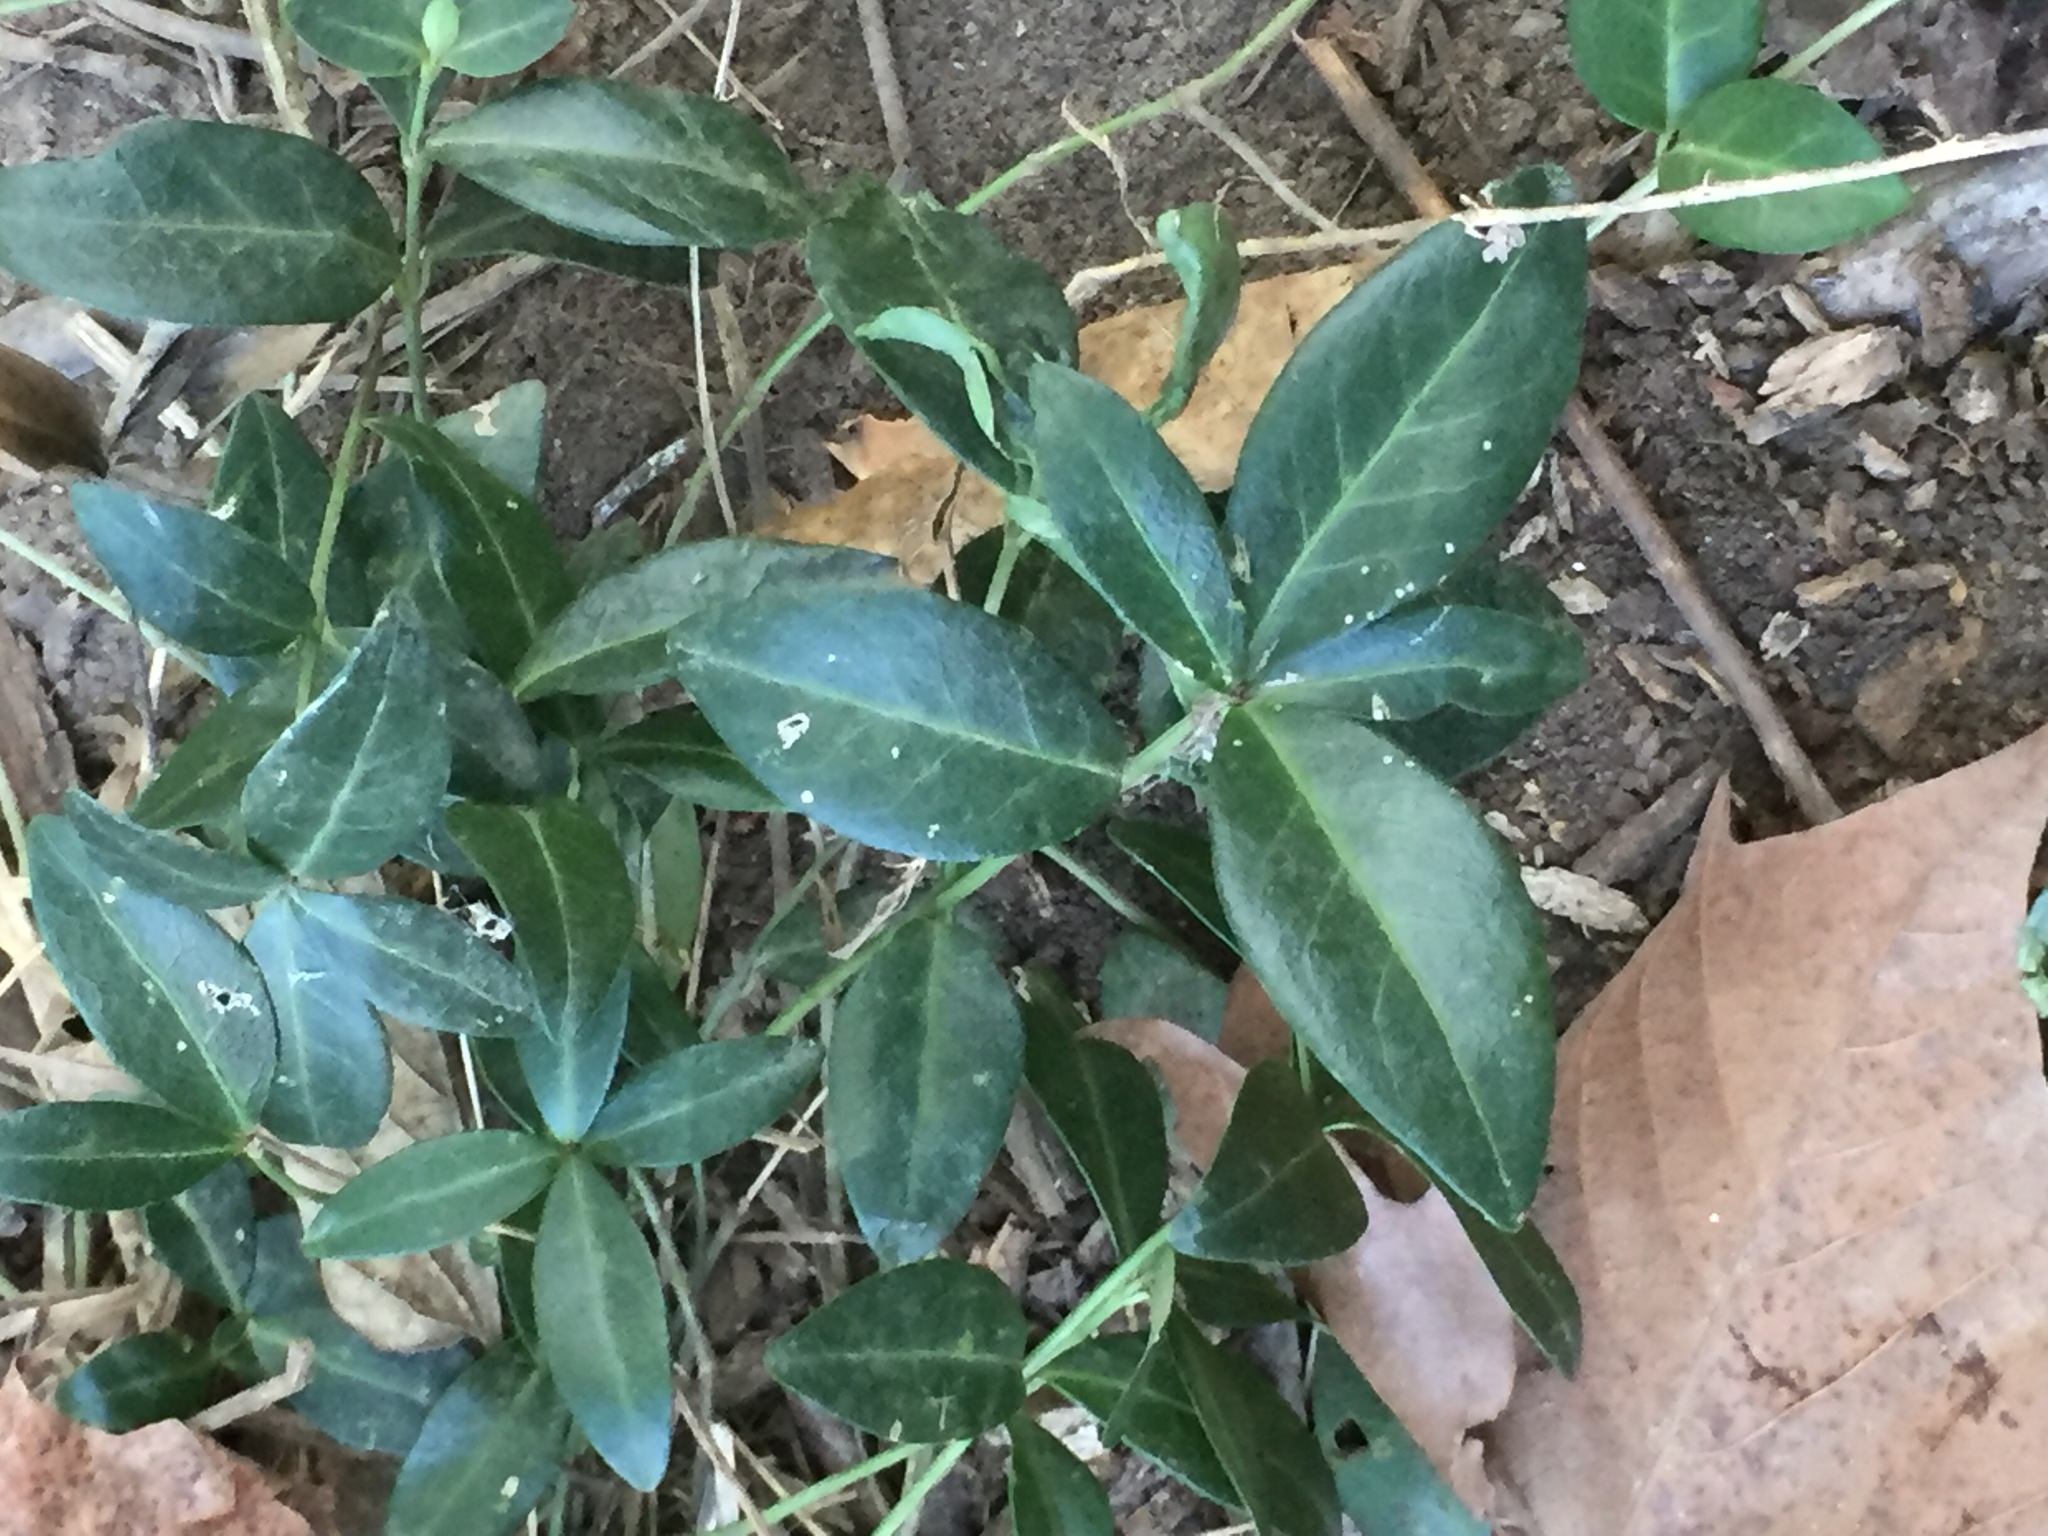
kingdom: Plantae
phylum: Tracheophyta
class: Magnoliopsida
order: Gentianales
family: Apocynaceae
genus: Vinca
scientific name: Vinca minor
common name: Lesser periwinkle
